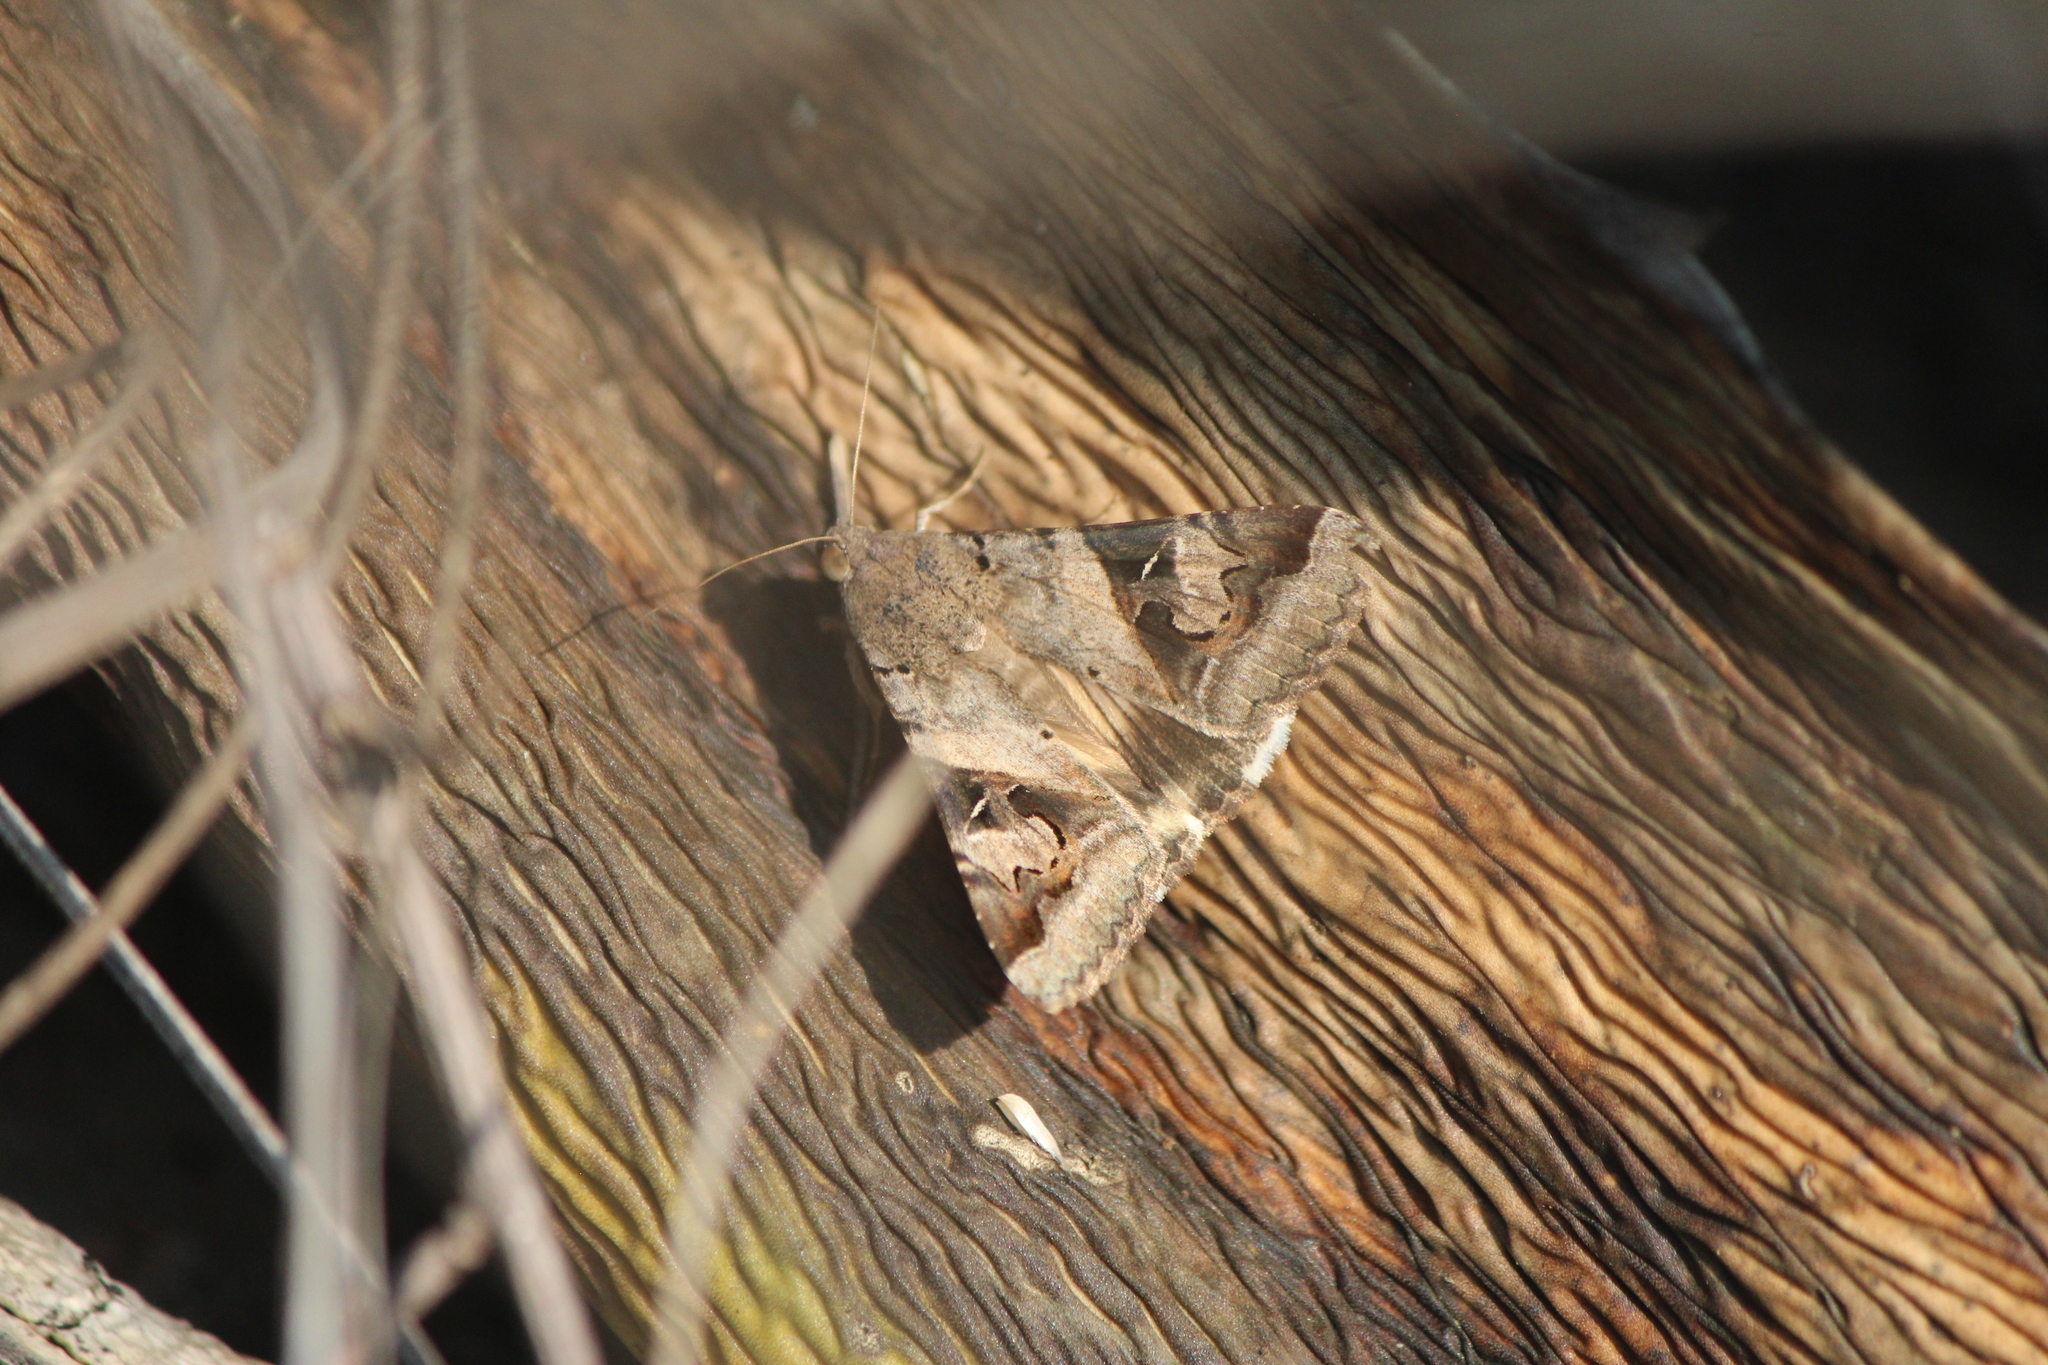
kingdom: Animalia
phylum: Arthropoda
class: Insecta
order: Lepidoptera
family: Erebidae
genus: Melipotis
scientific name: Melipotis indomita
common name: Moth
